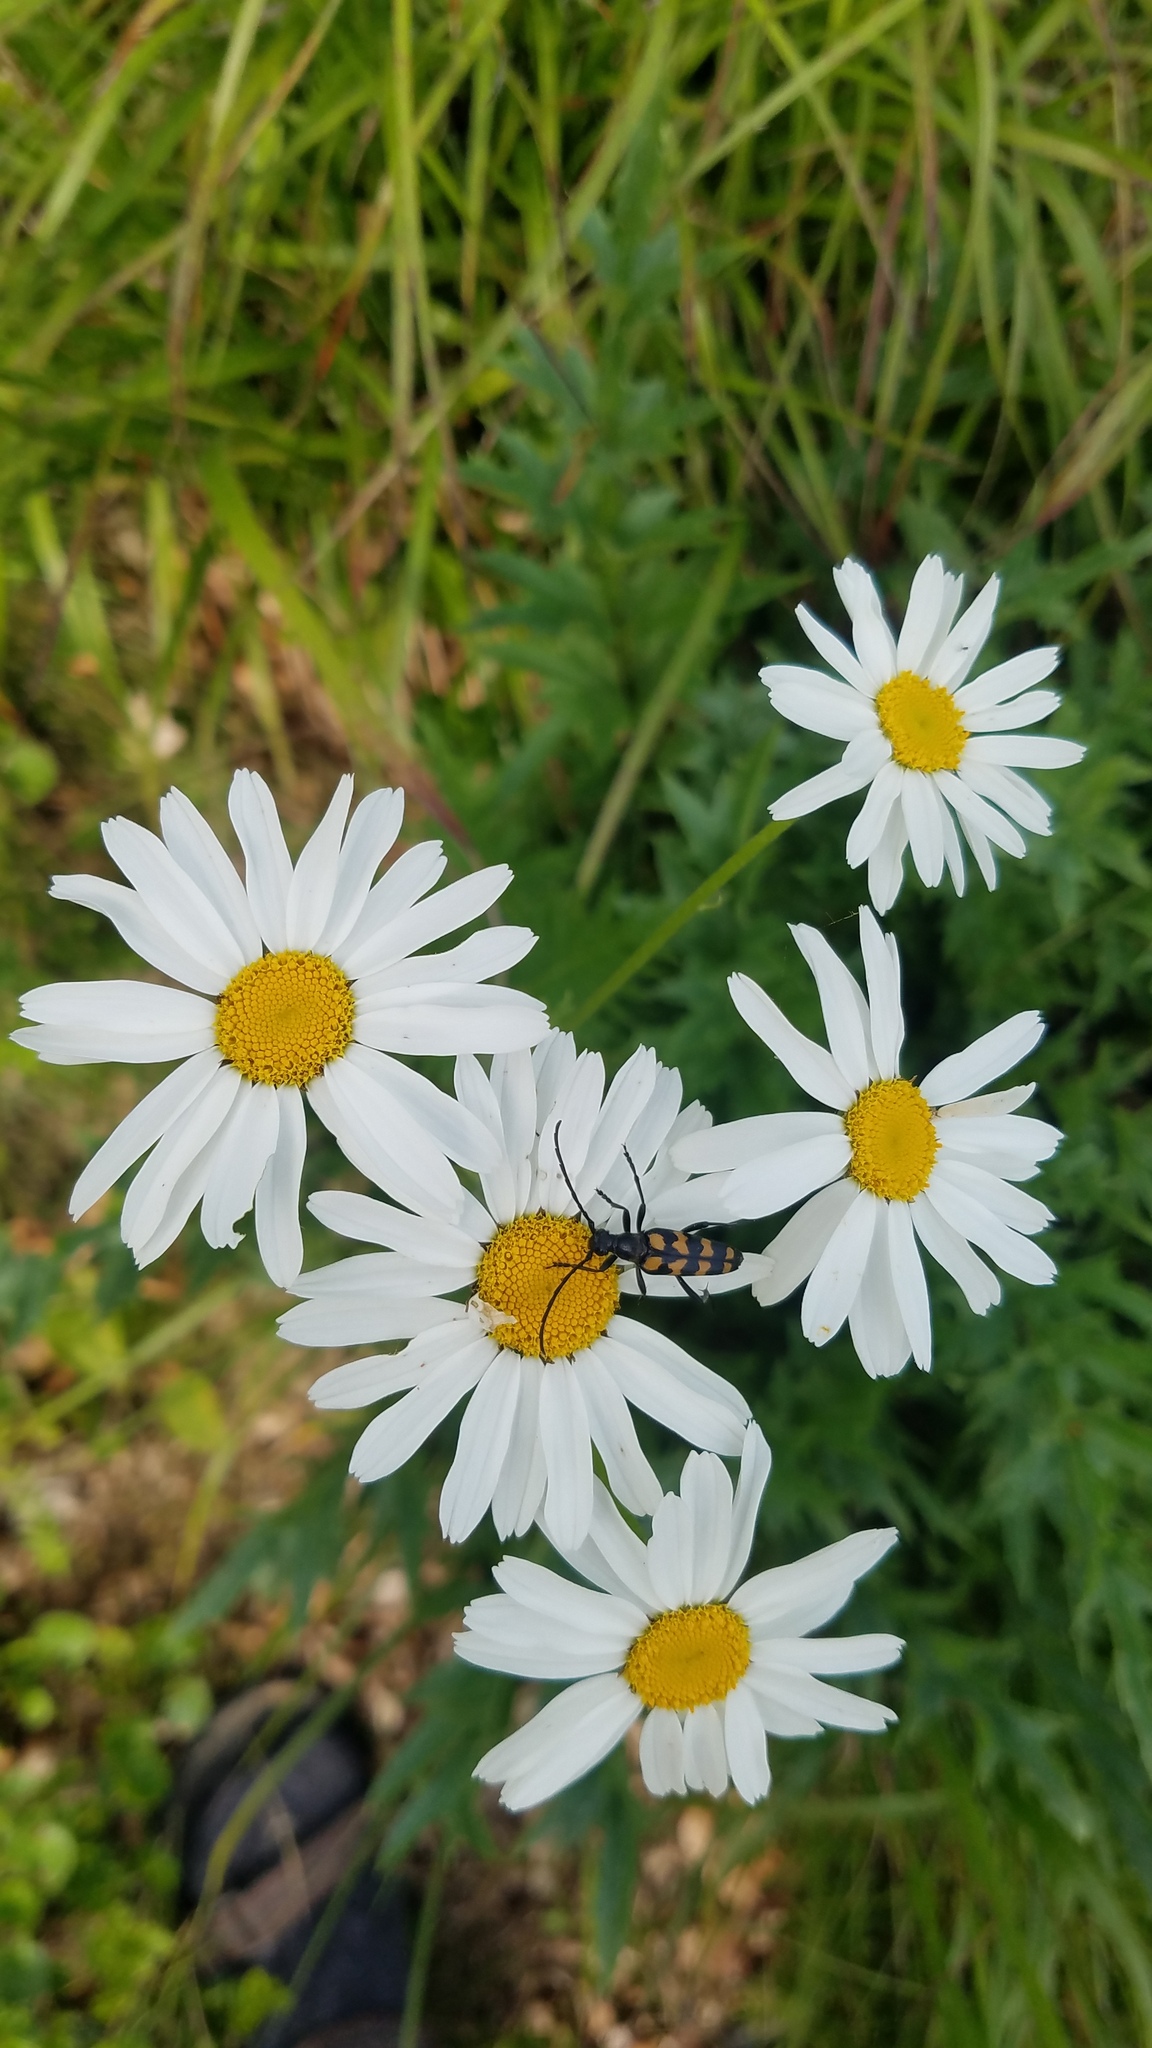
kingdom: Animalia
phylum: Arthropoda
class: Insecta
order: Coleoptera
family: Cerambycidae
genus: Leptura
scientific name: Leptura quadrifasciata
